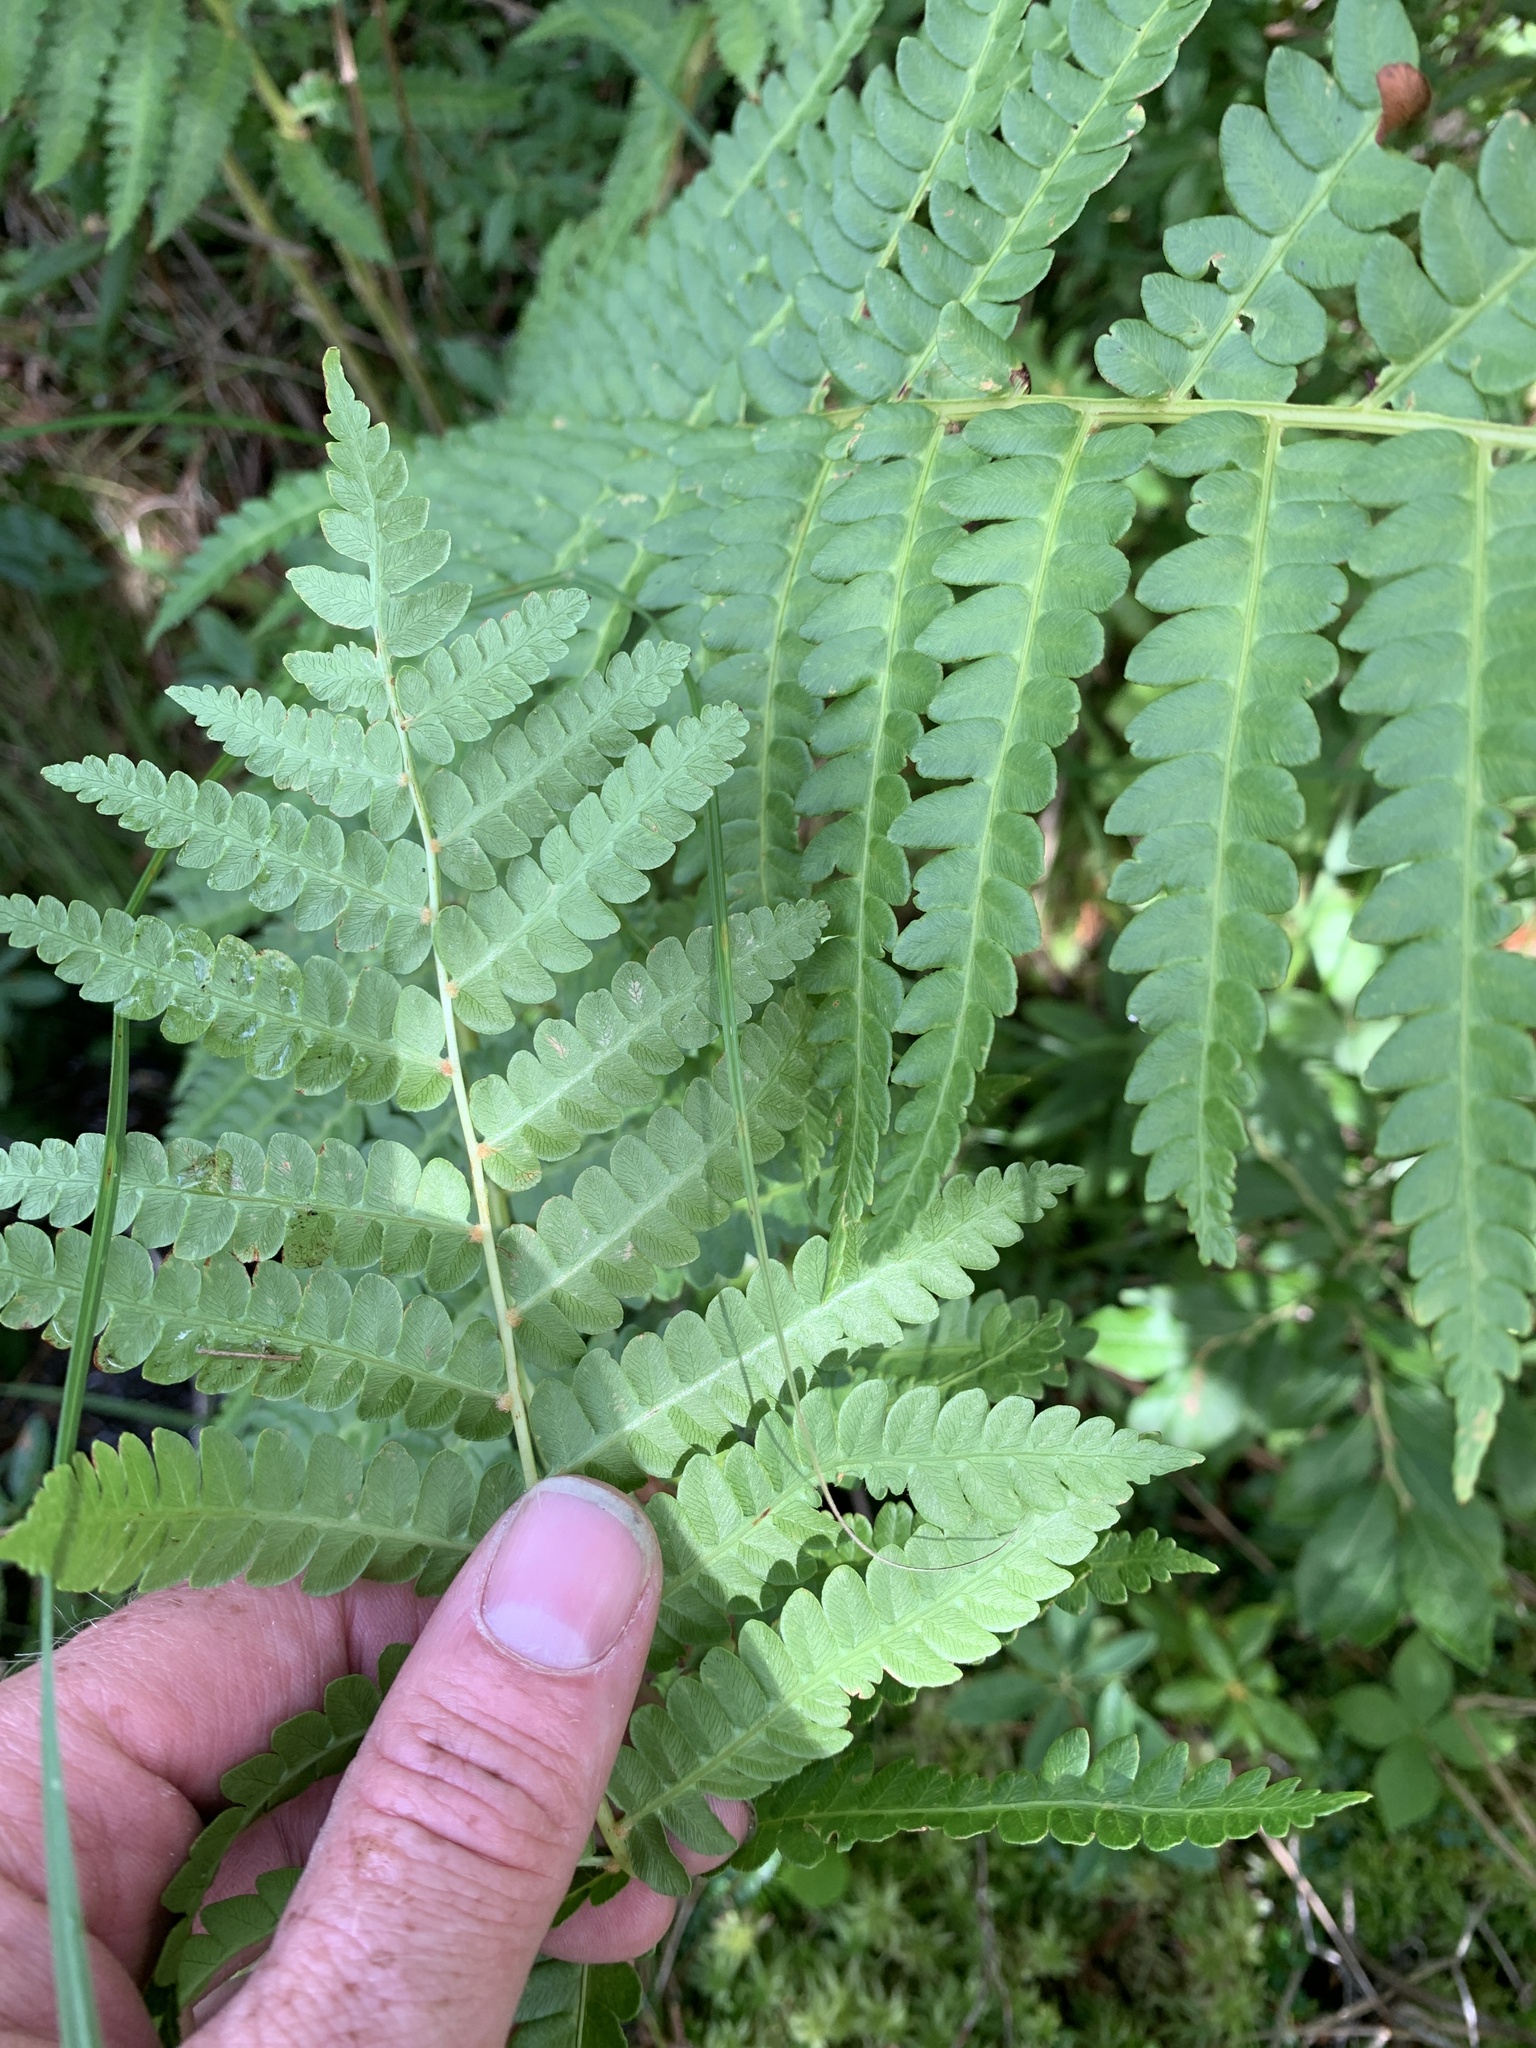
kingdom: Plantae
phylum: Tracheophyta
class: Polypodiopsida
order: Osmundales
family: Osmundaceae
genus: Osmundastrum
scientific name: Osmundastrum cinnamomeum
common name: Cinnamon fern
